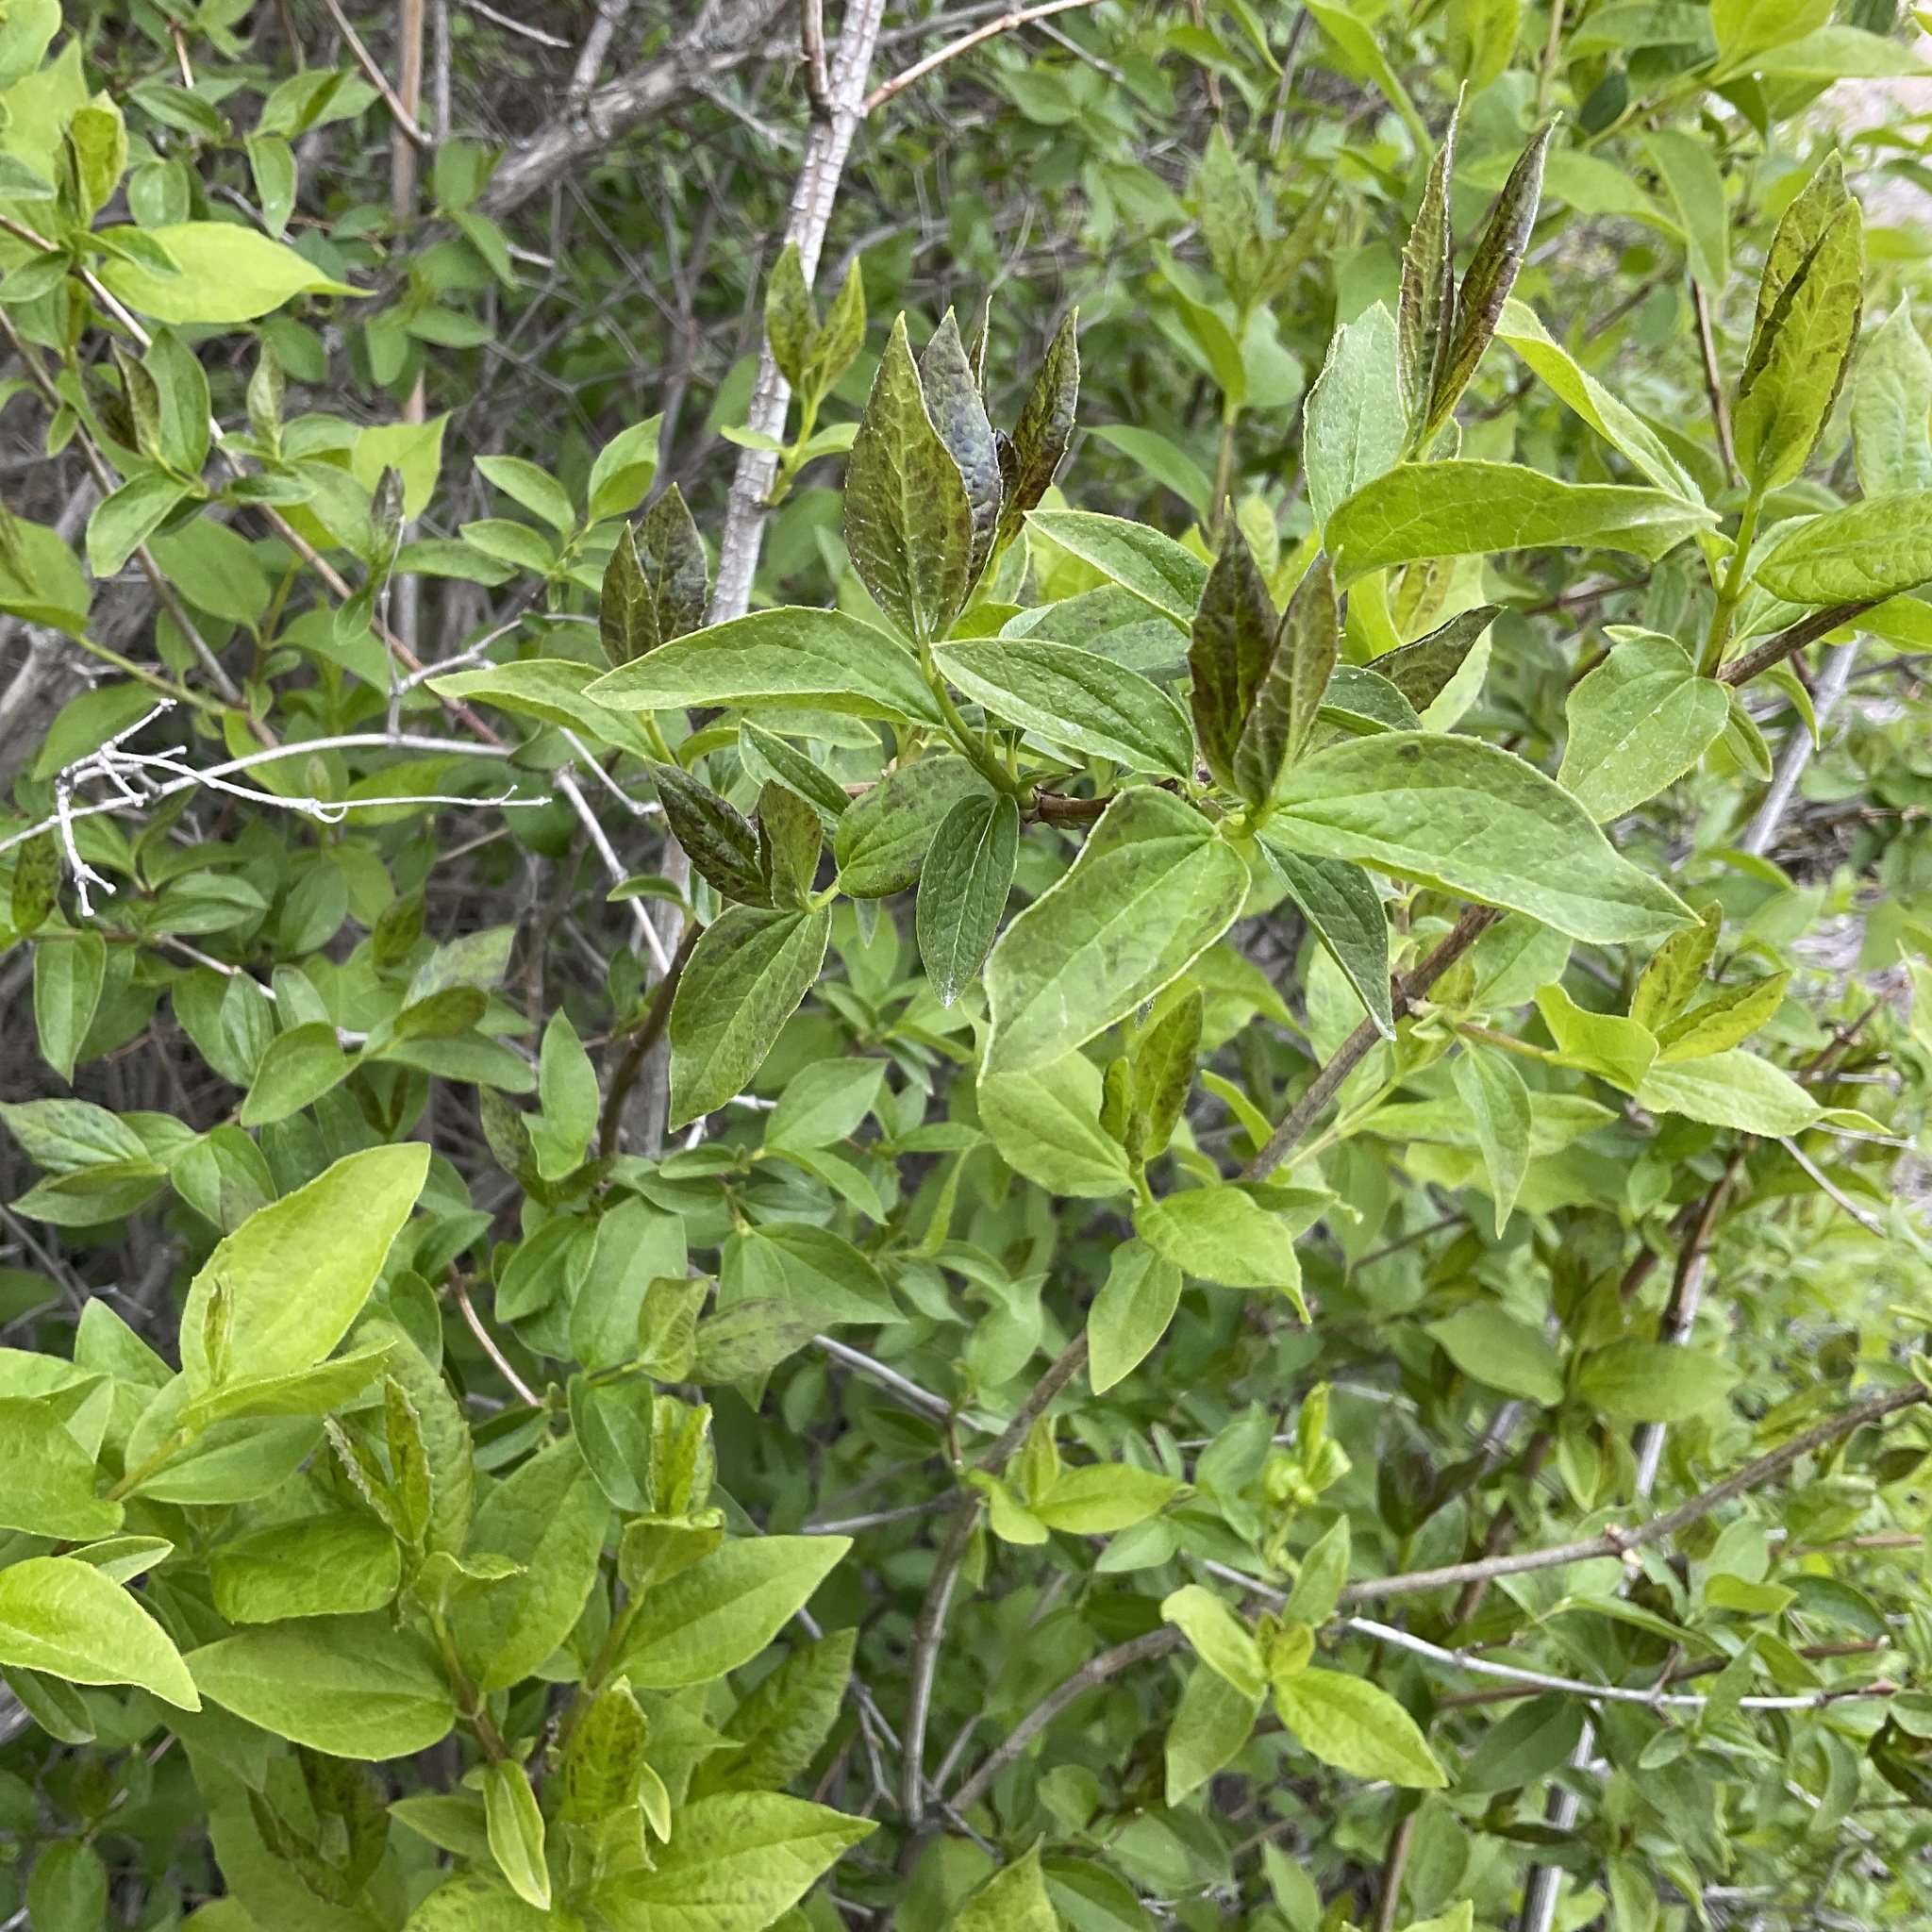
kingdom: Plantae
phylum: Tracheophyta
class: Magnoliopsida
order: Cornales
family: Hydrangeaceae
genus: Philadelphus
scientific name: Philadelphus lewisii
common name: Lewis's mock orange
